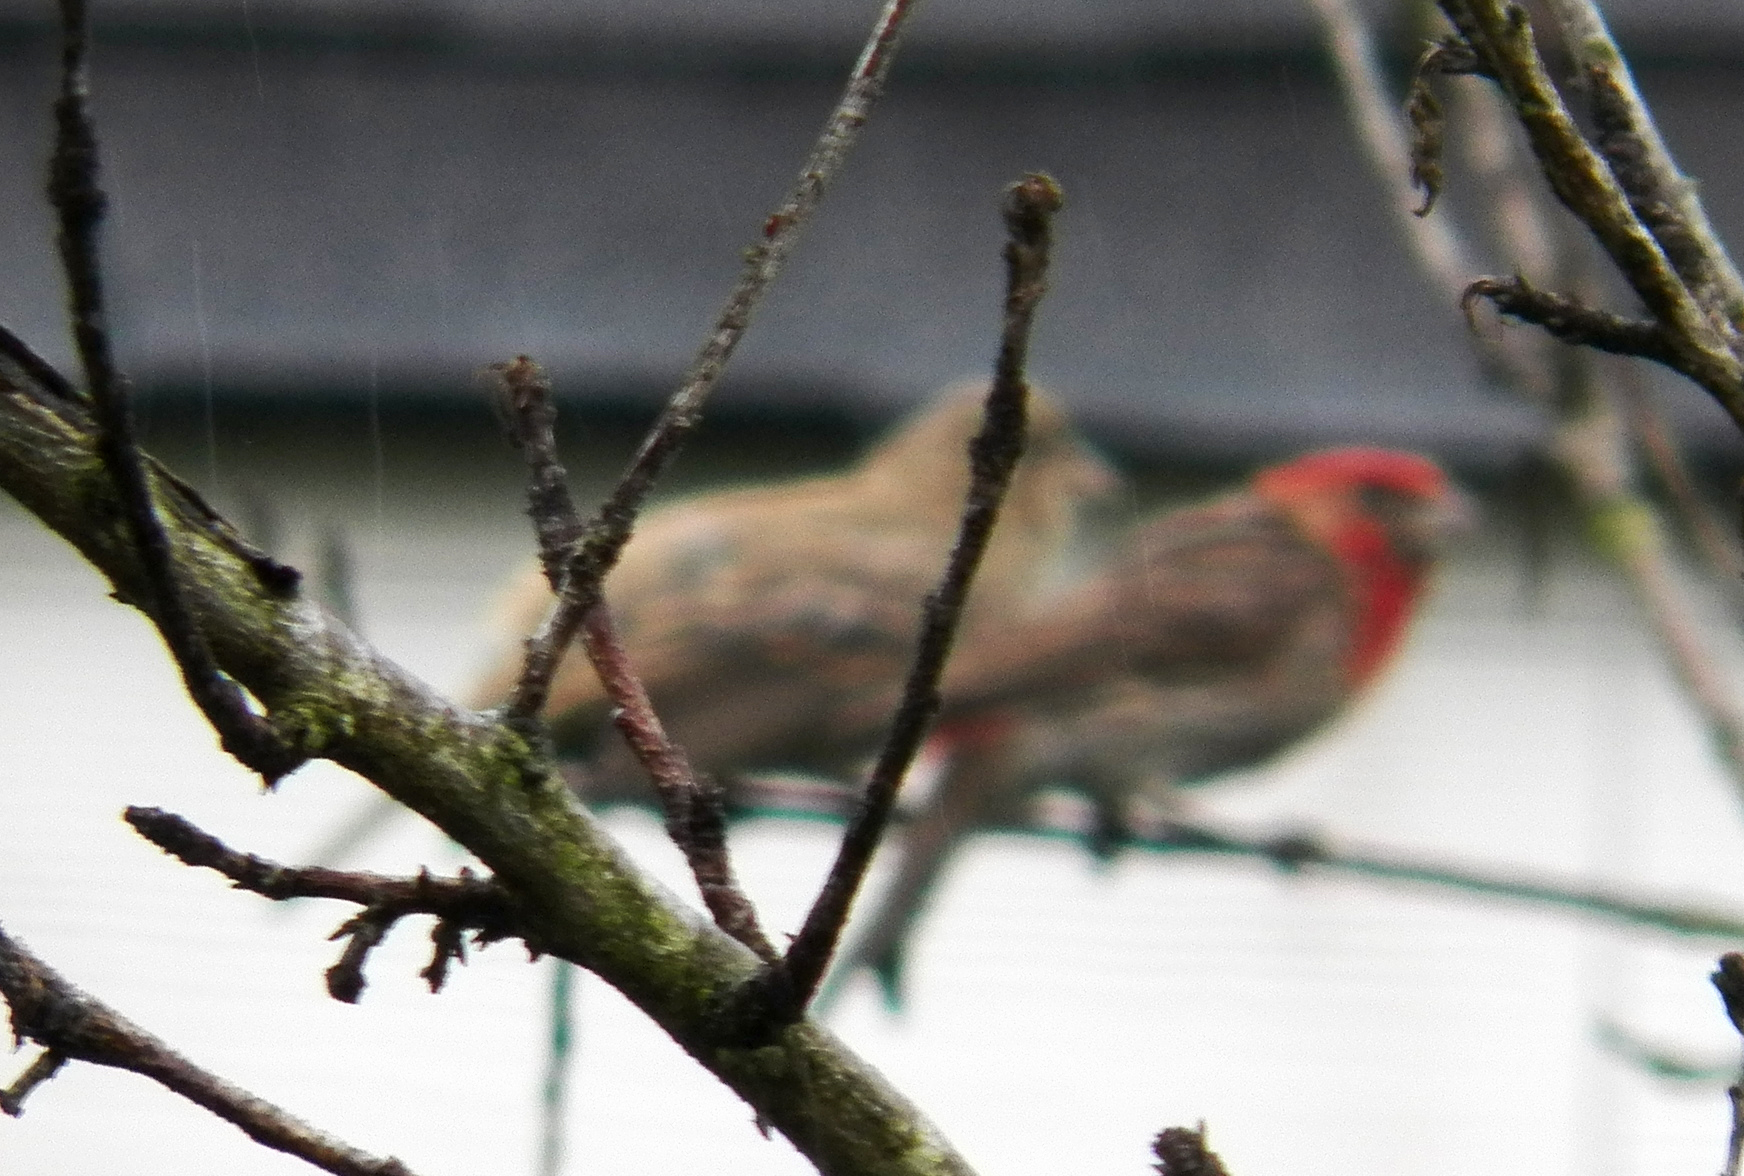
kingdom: Animalia
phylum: Chordata
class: Aves
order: Passeriformes
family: Fringillidae
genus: Haemorhous
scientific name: Haemorhous mexicanus
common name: House finch
